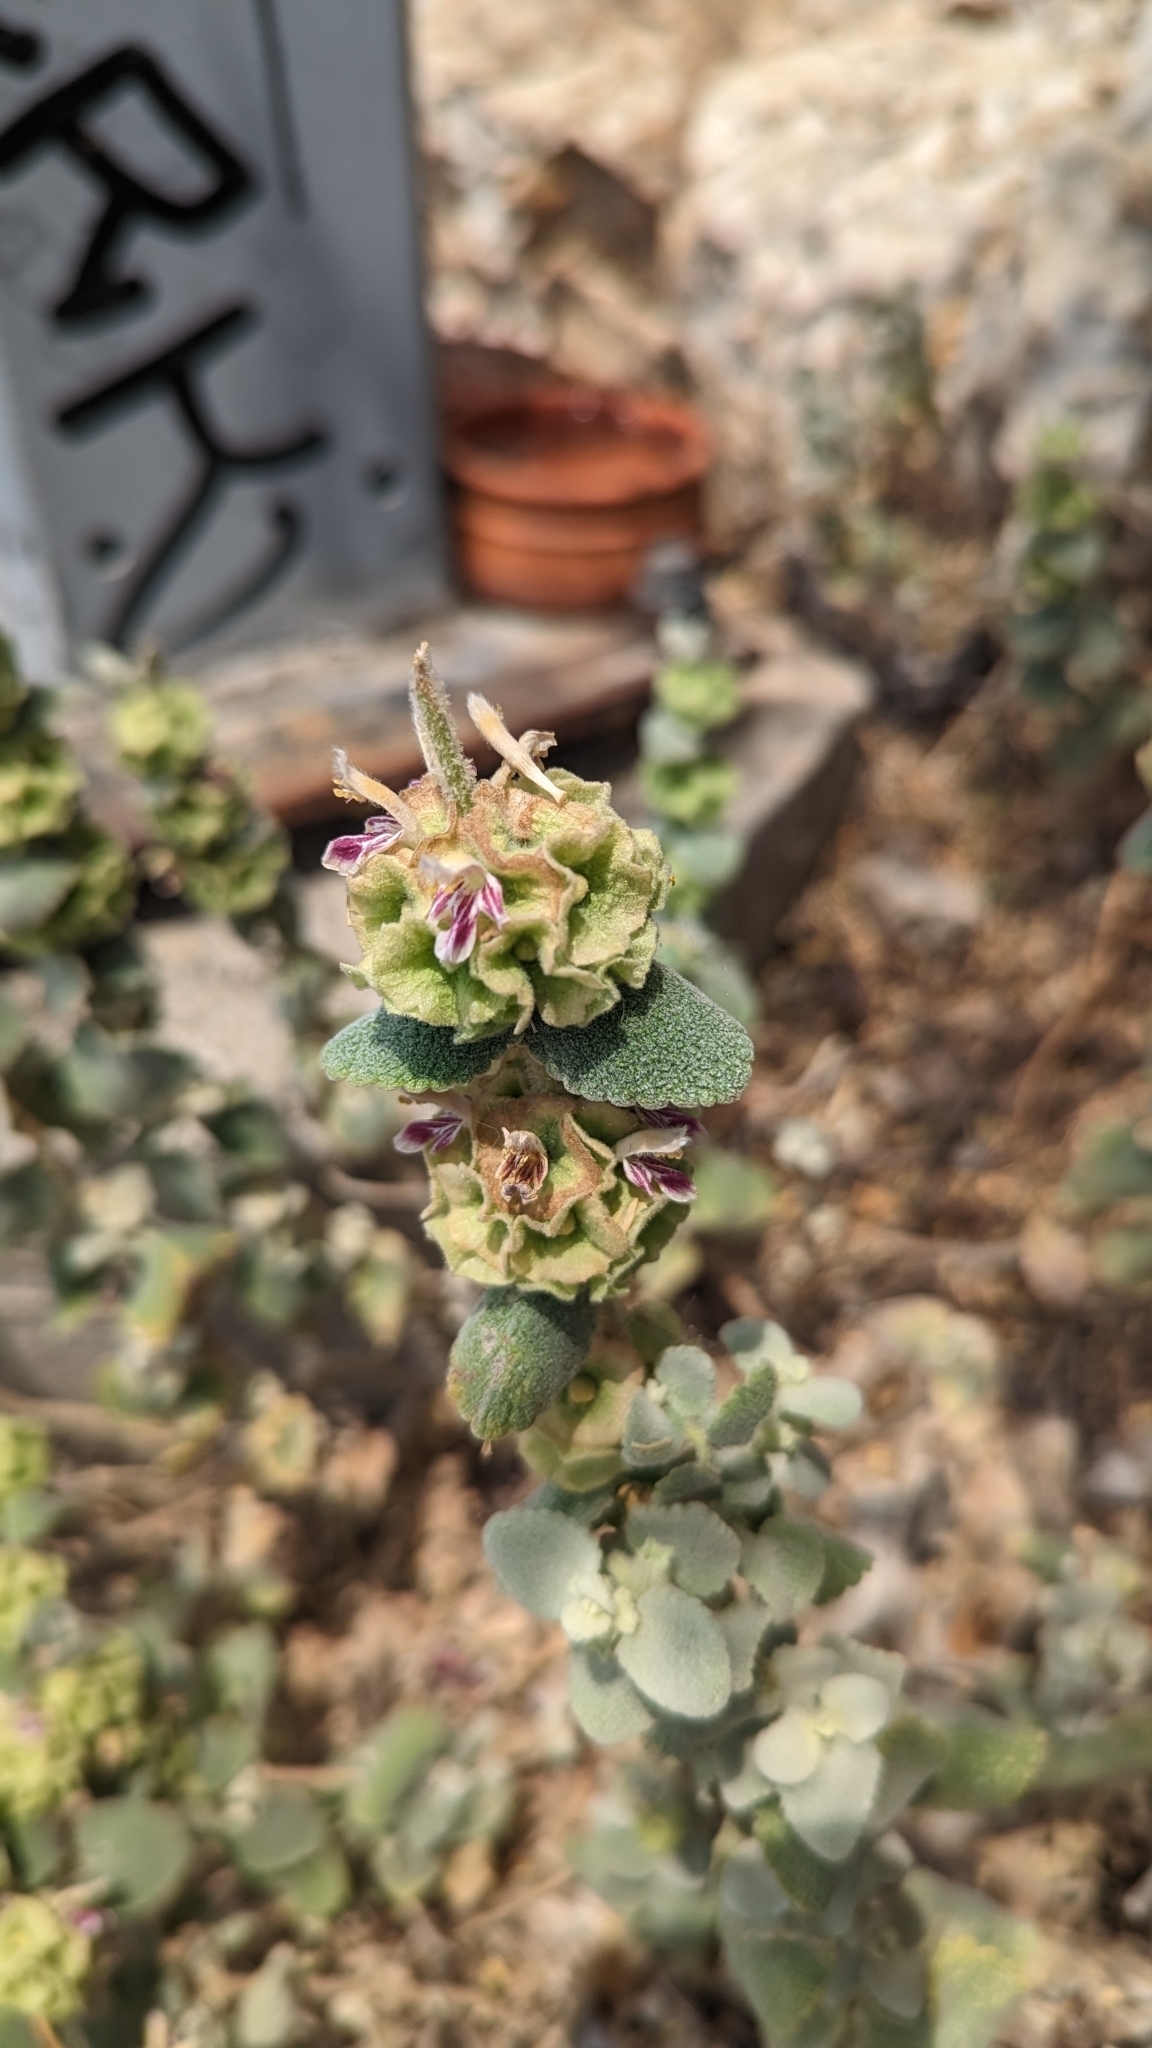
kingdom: Plantae
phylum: Tracheophyta
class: Magnoliopsida
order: Lamiales
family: Lamiaceae
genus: Pseudodictamnus
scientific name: Pseudodictamnus acetabulosus
